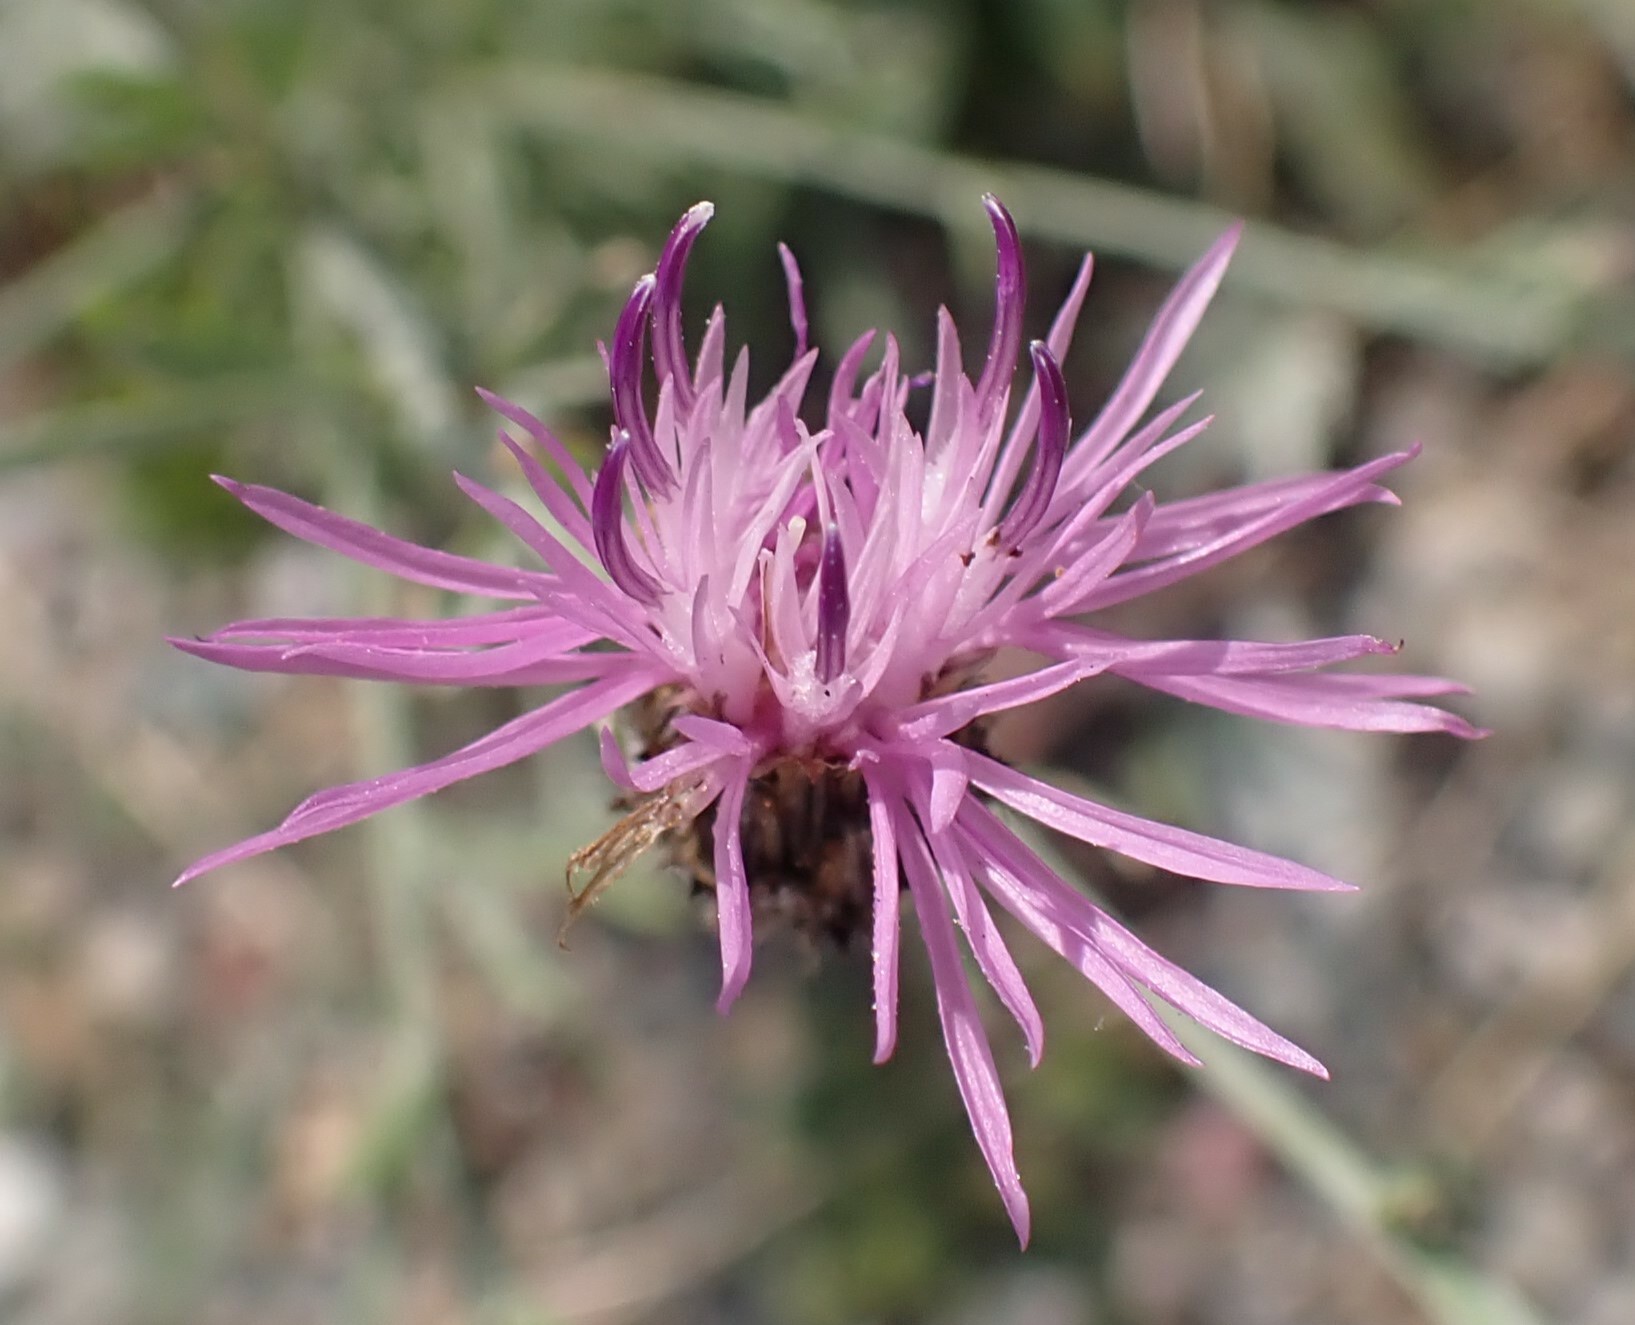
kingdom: Plantae
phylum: Tracheophyta
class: Magnoliopsida
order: Asterales
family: Asteraceae
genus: Centaurea
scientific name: Centaurea stoebe
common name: Spotted knapweed
